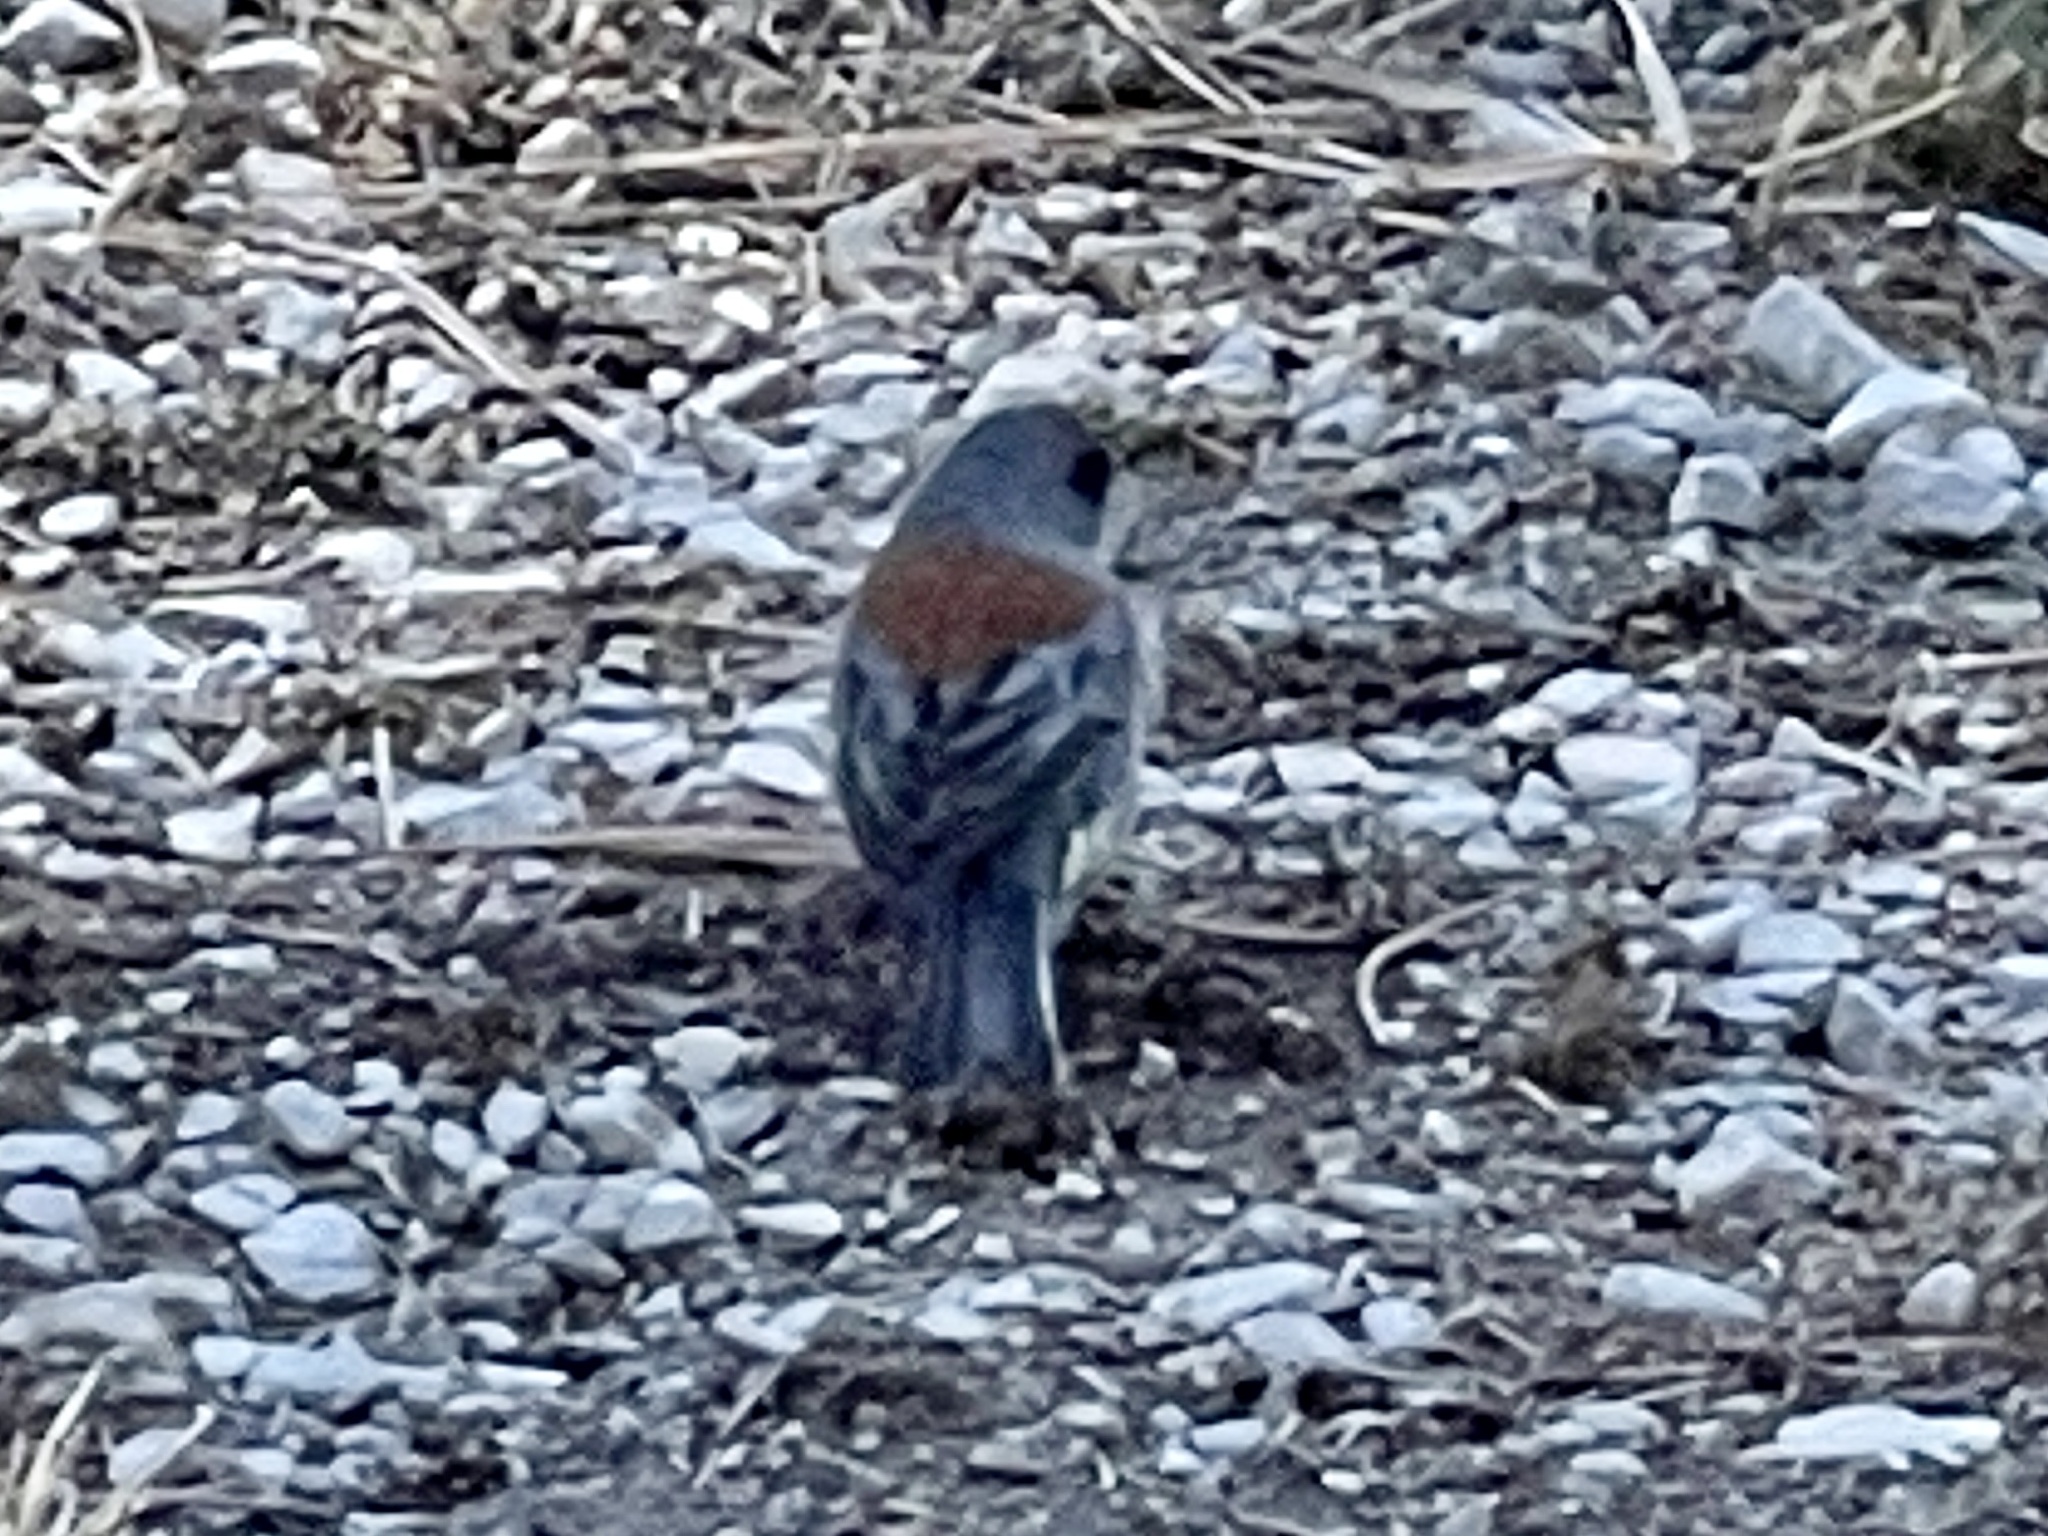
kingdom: Animalia
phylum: Chordata
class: Aves
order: Passeriformes
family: Passerellidae
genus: Junco
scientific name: Junco hyemalis
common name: Dark-eyed junco
